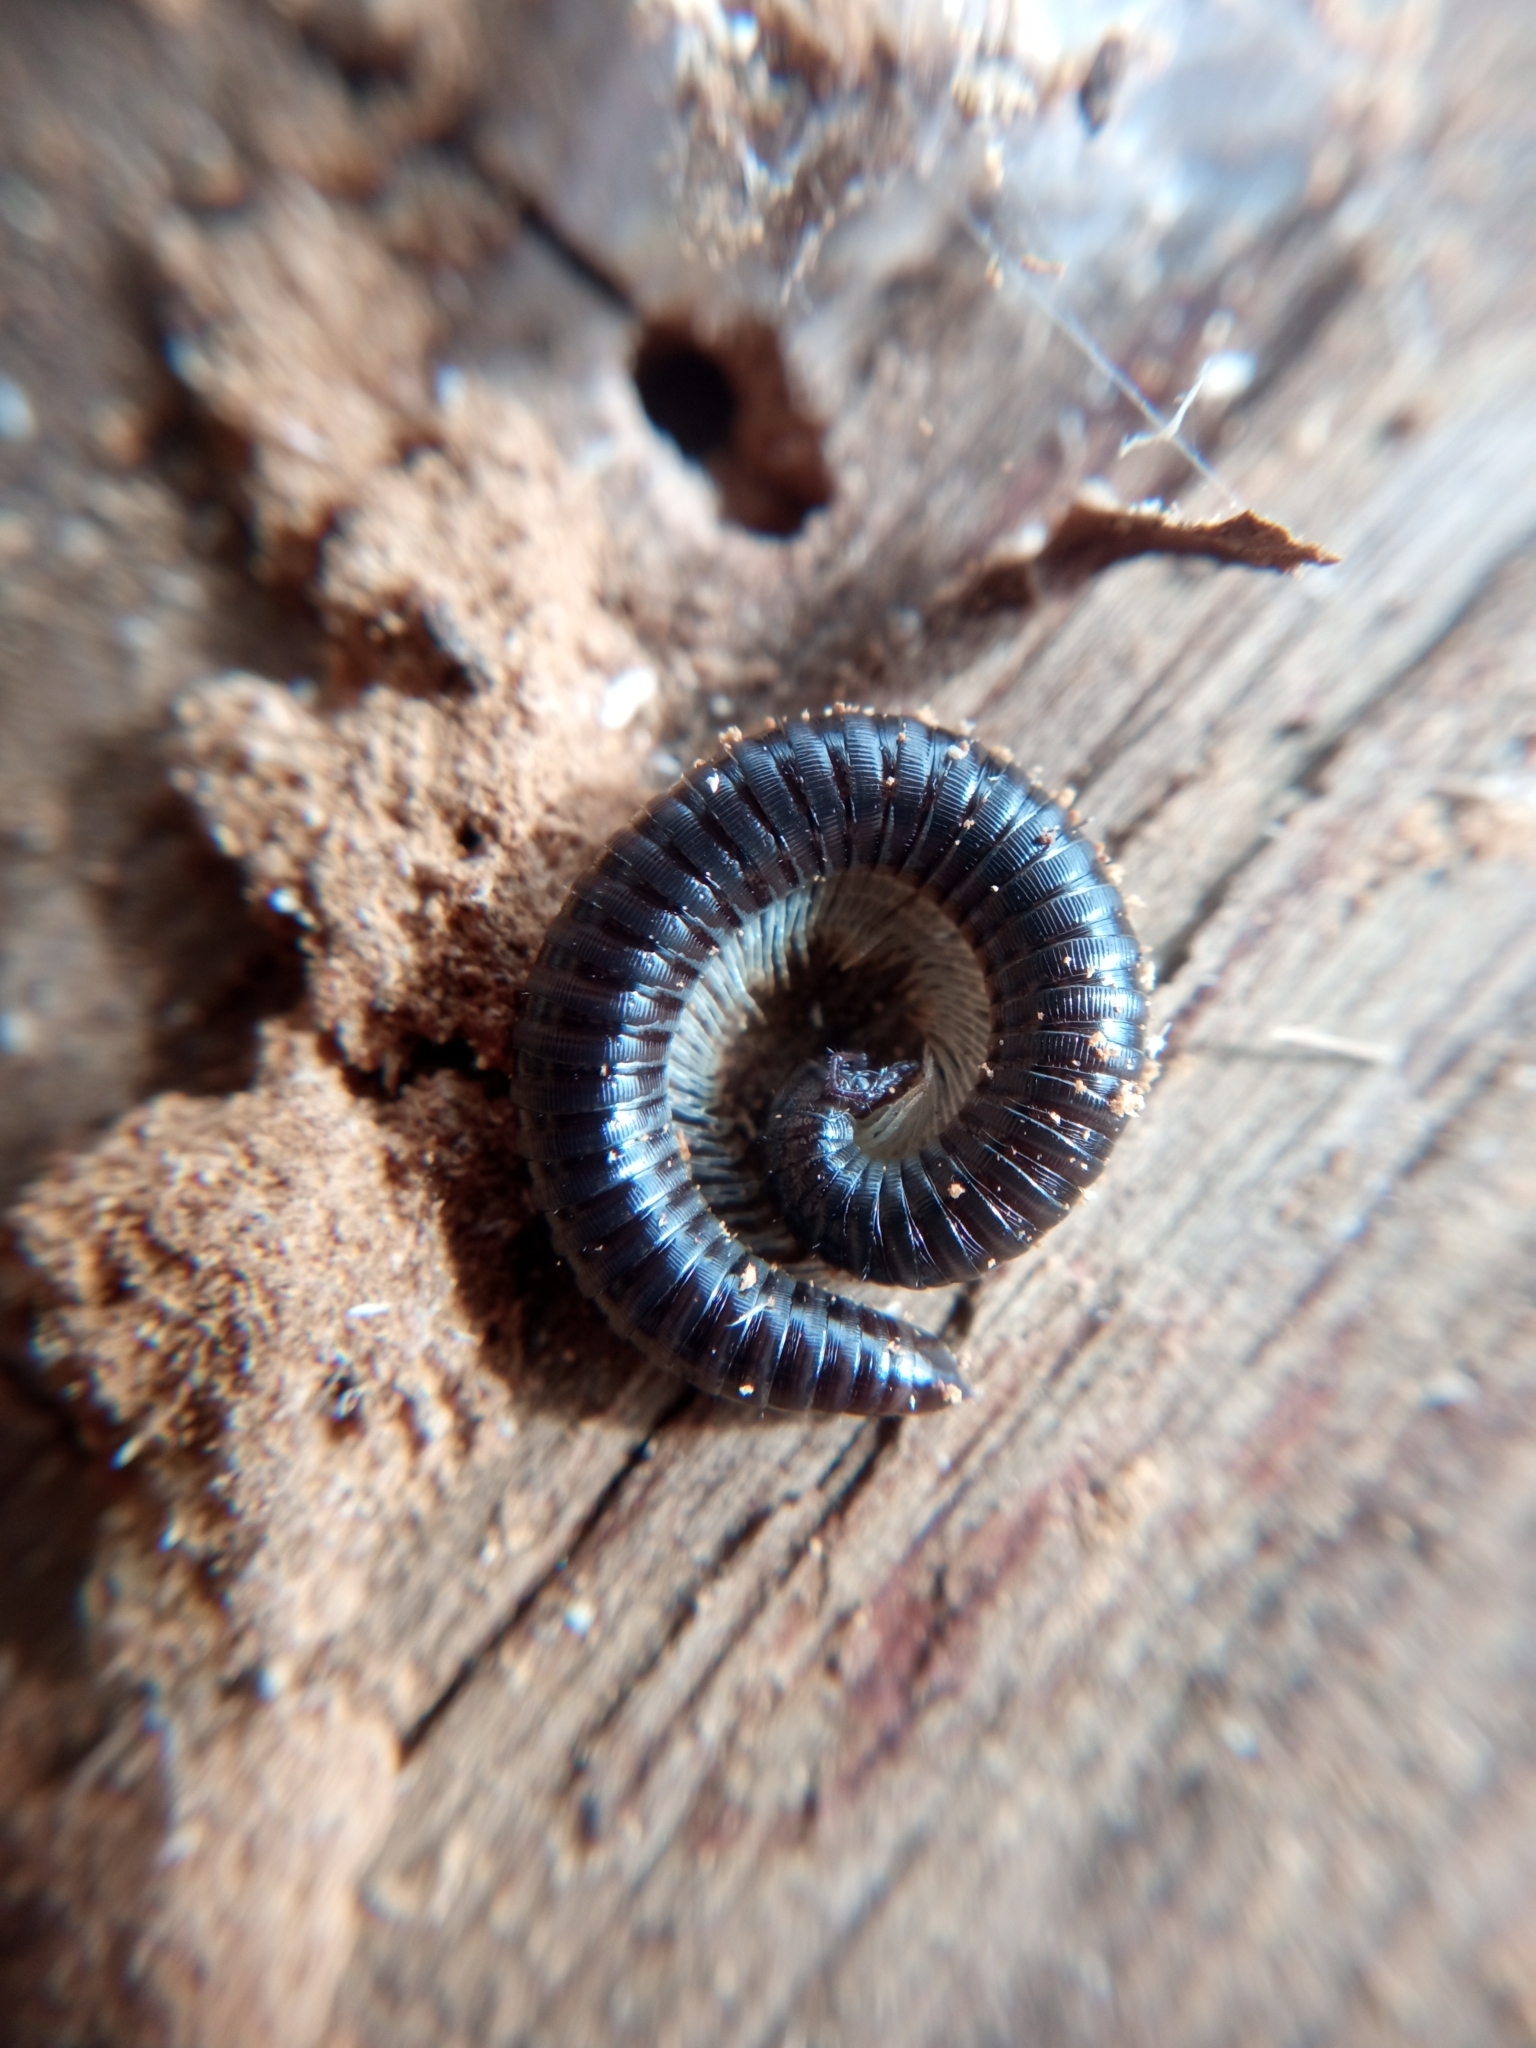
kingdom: Animalia
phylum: Arthropoda
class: Diplopoda
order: Julida
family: Julidae
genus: Tachypodoiulus
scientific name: Tachypodoiulus niger
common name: White-legged snake millipede
